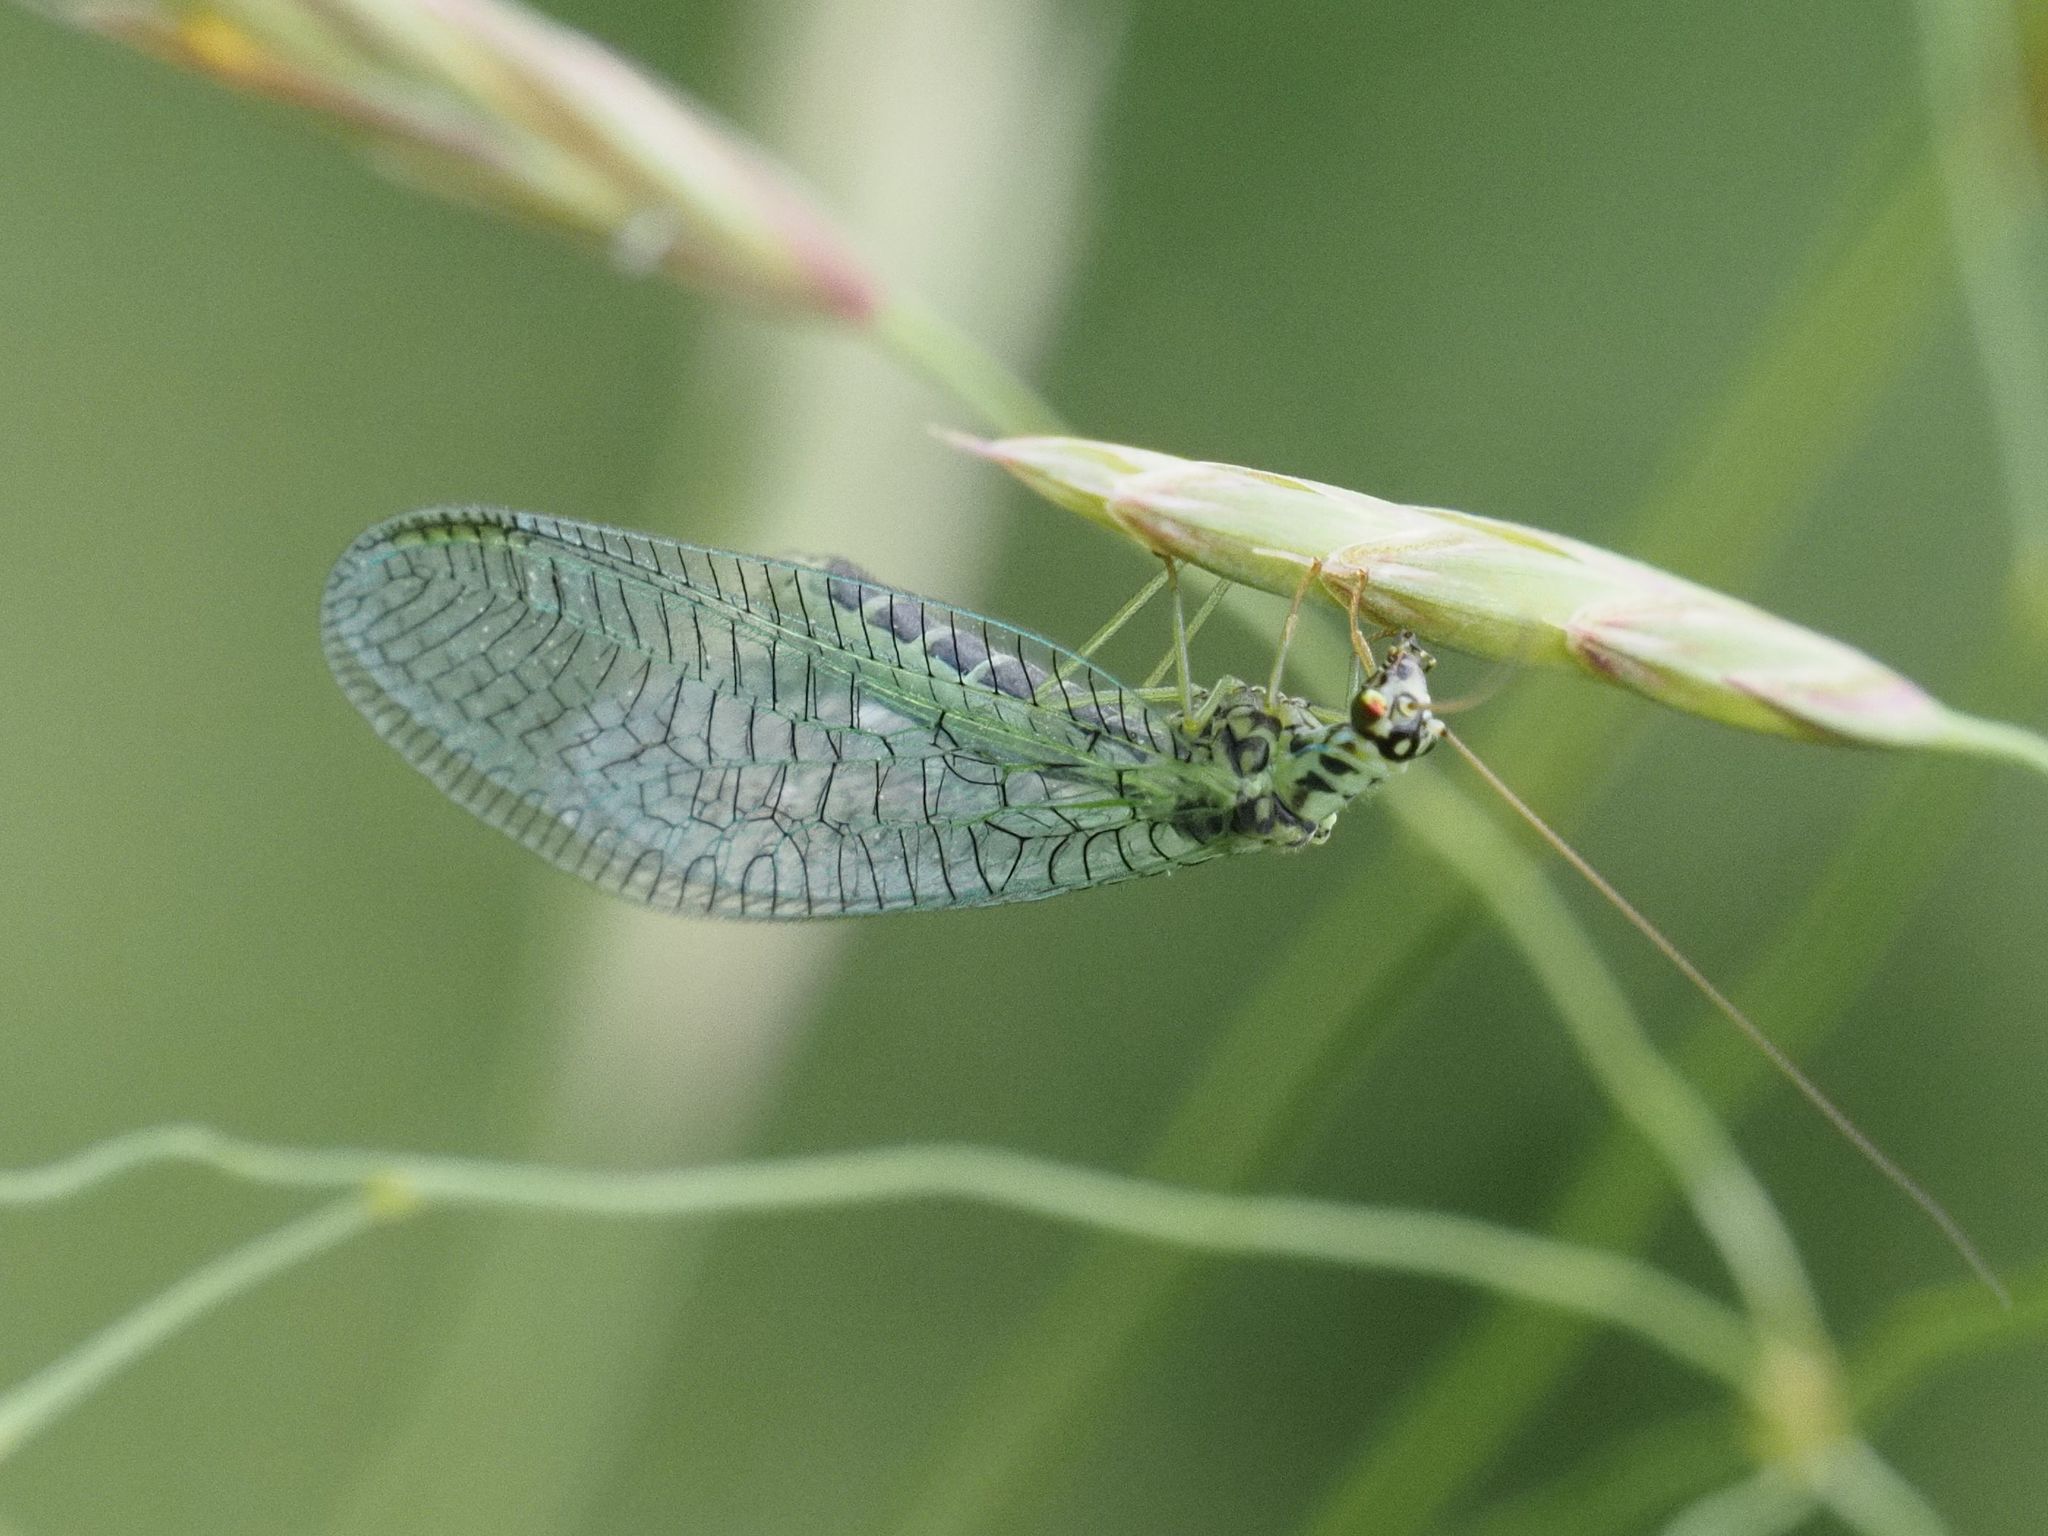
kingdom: Animalia
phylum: Arthropoda
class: Insecta
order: Neuroptera
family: Chrysopidae
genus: Chrysopa
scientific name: Chrysopa perla
